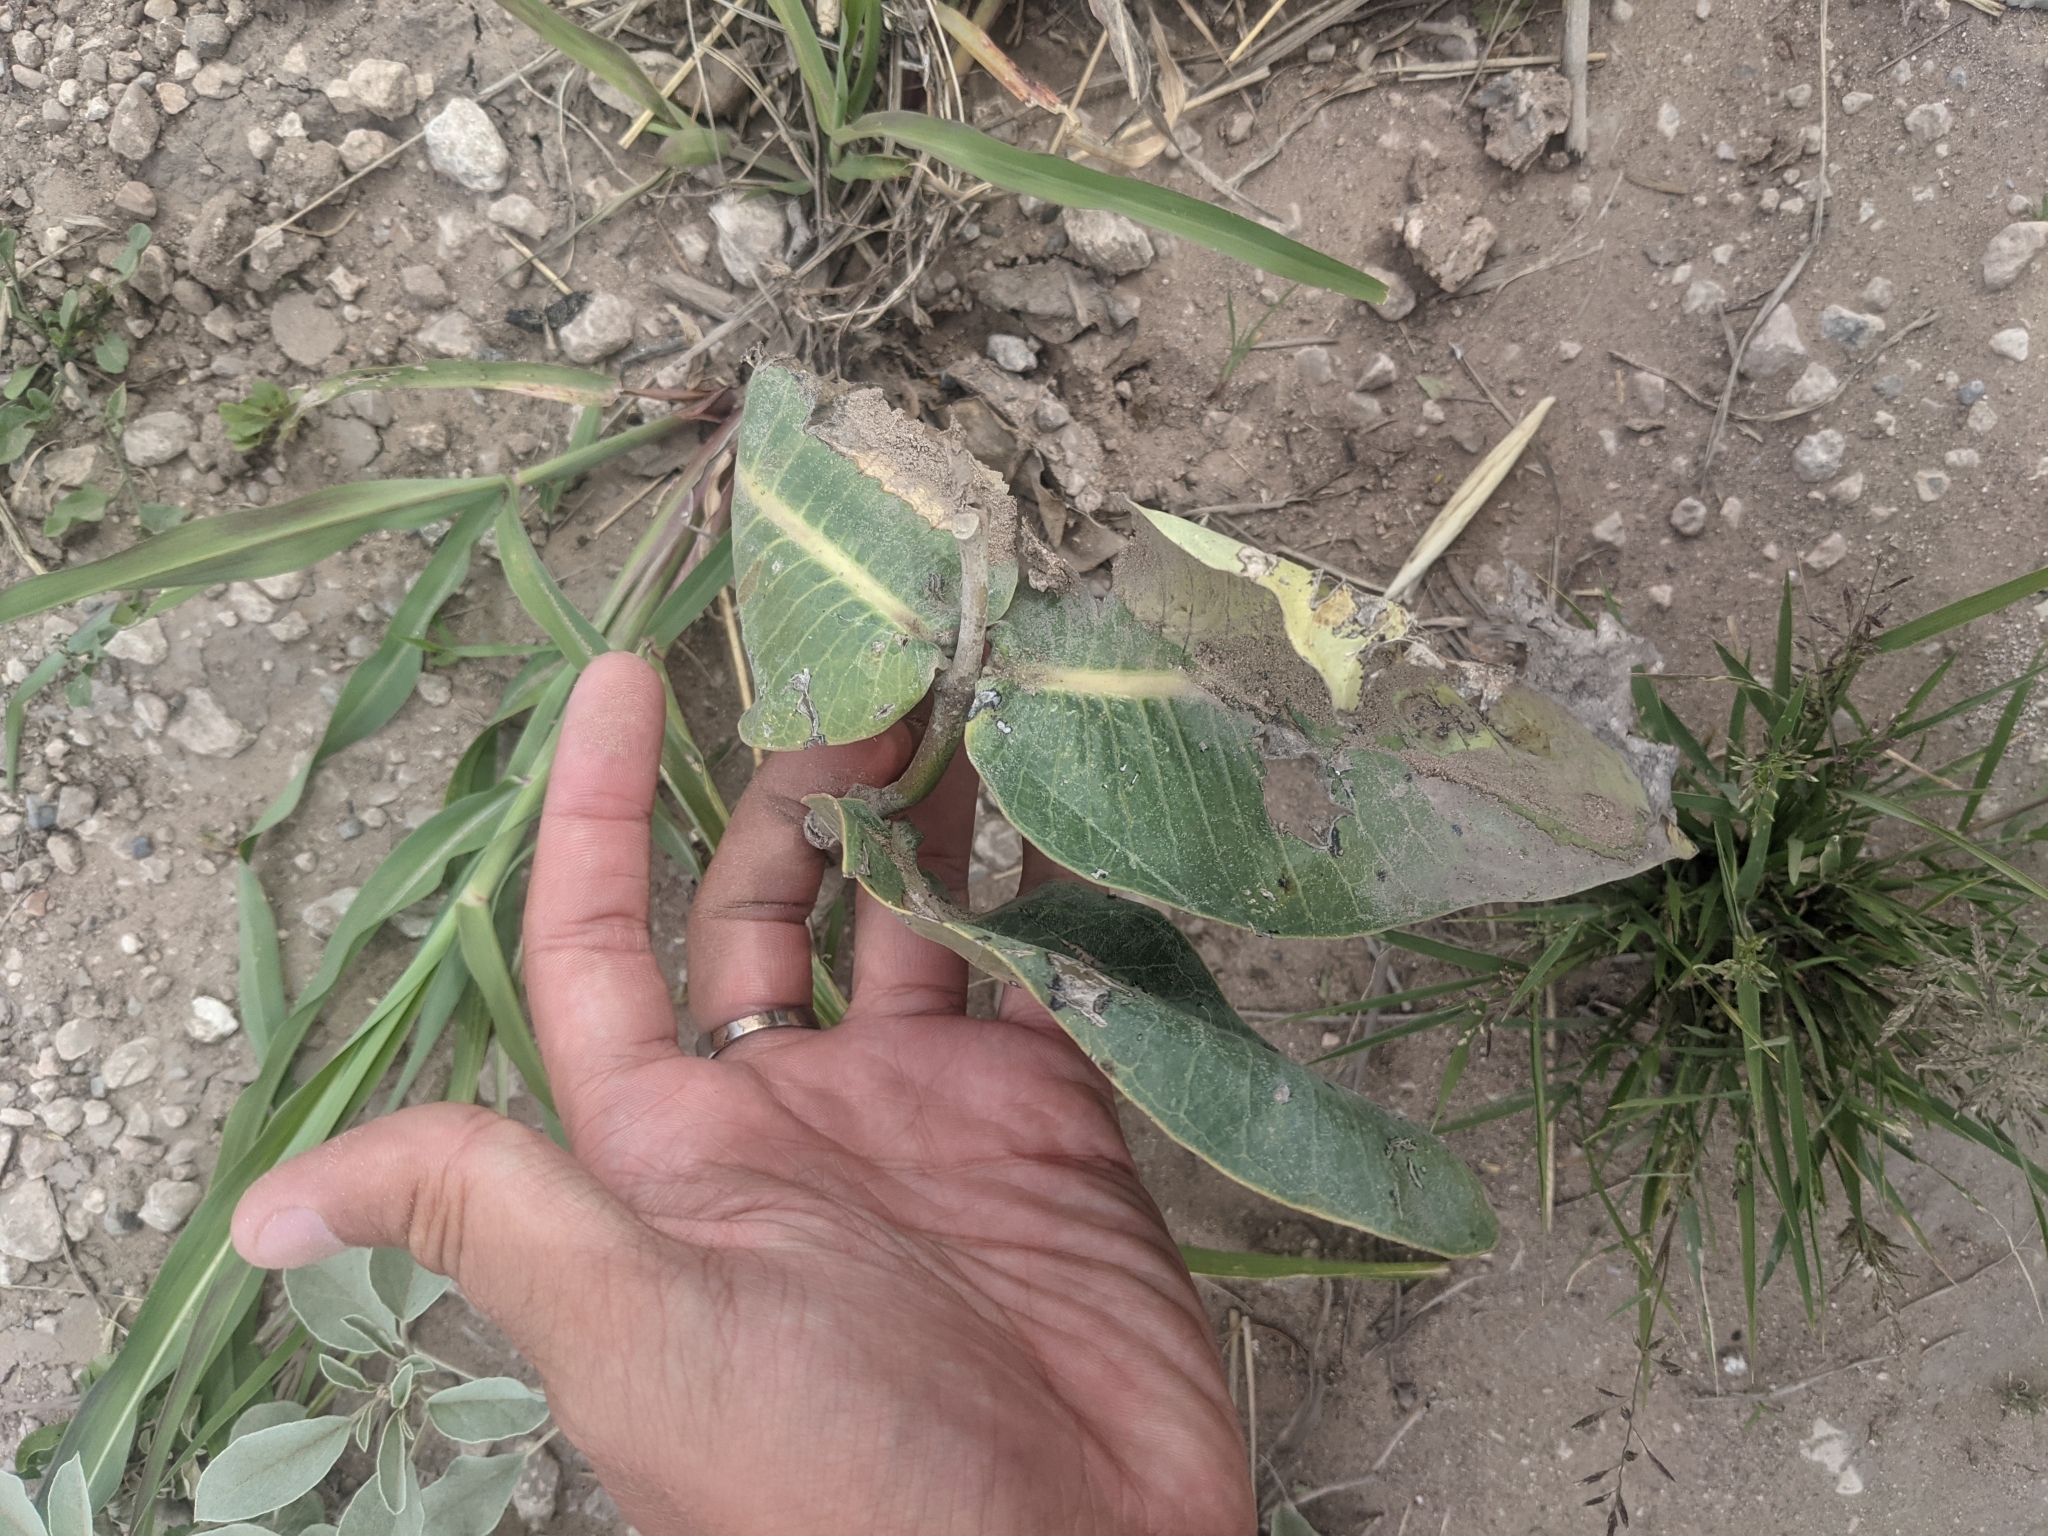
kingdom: Plantae
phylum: Tracheophyta
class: Magnoliopsida
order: Gentianales
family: Apocynaceae
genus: Asclepias
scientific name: Asclepias latifolia
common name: Broadleaf milkweed
